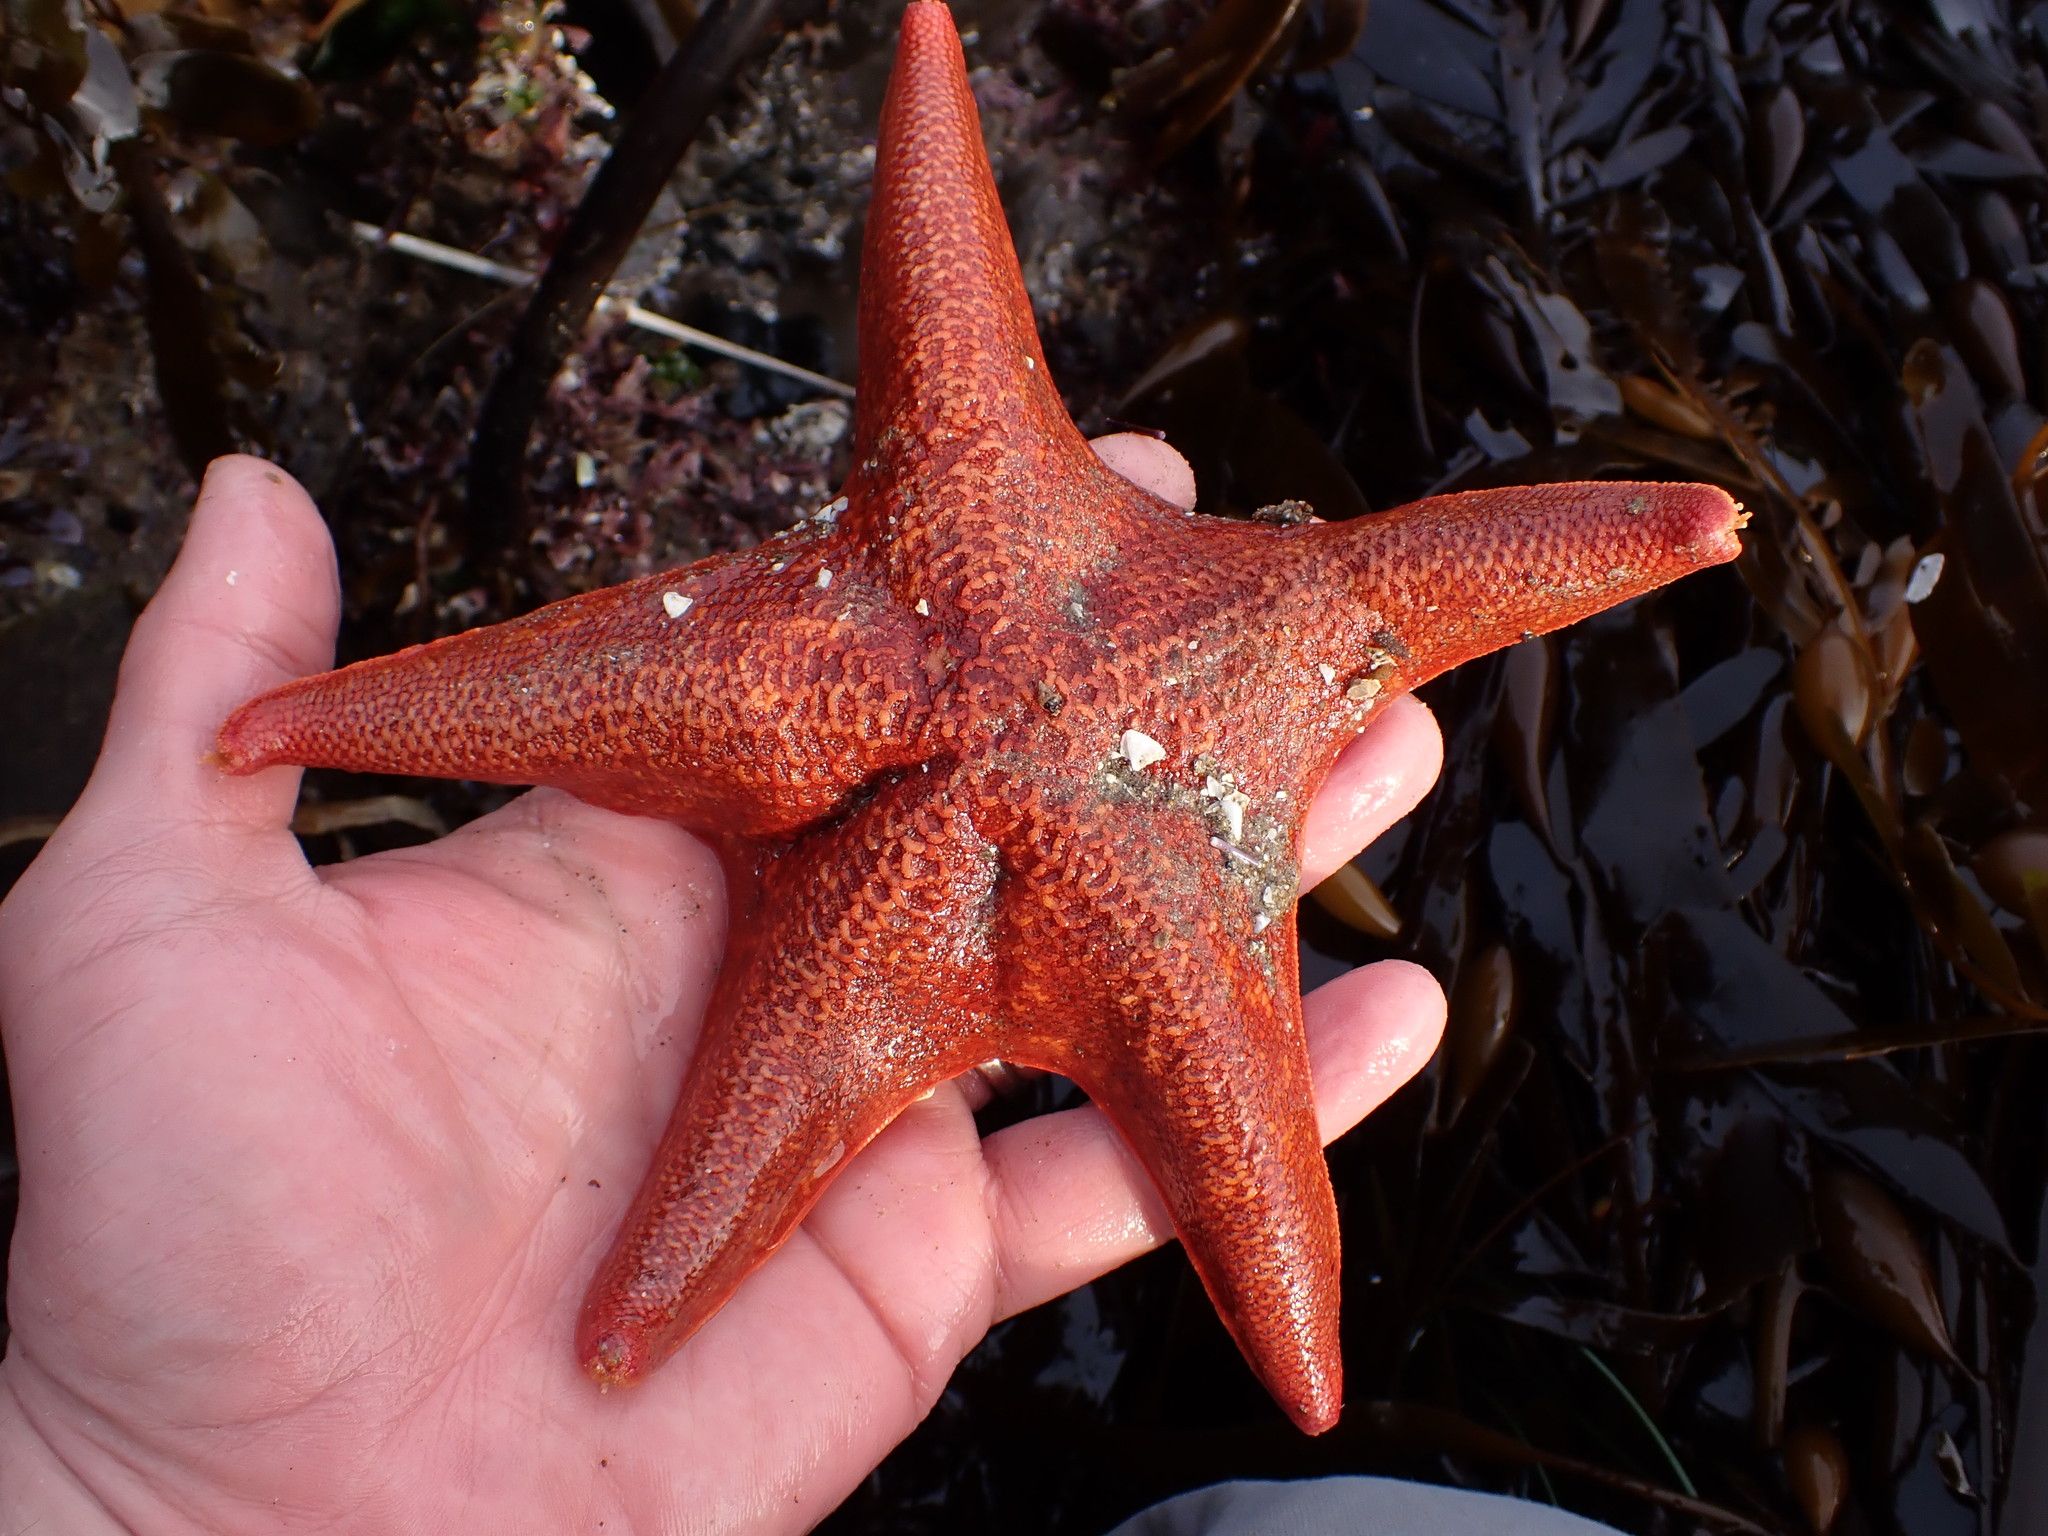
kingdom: Animalia
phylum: Echinodermata
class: Asteroidea
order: Valvatida
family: Asterinidae
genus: Patiria
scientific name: Patiria miniata
